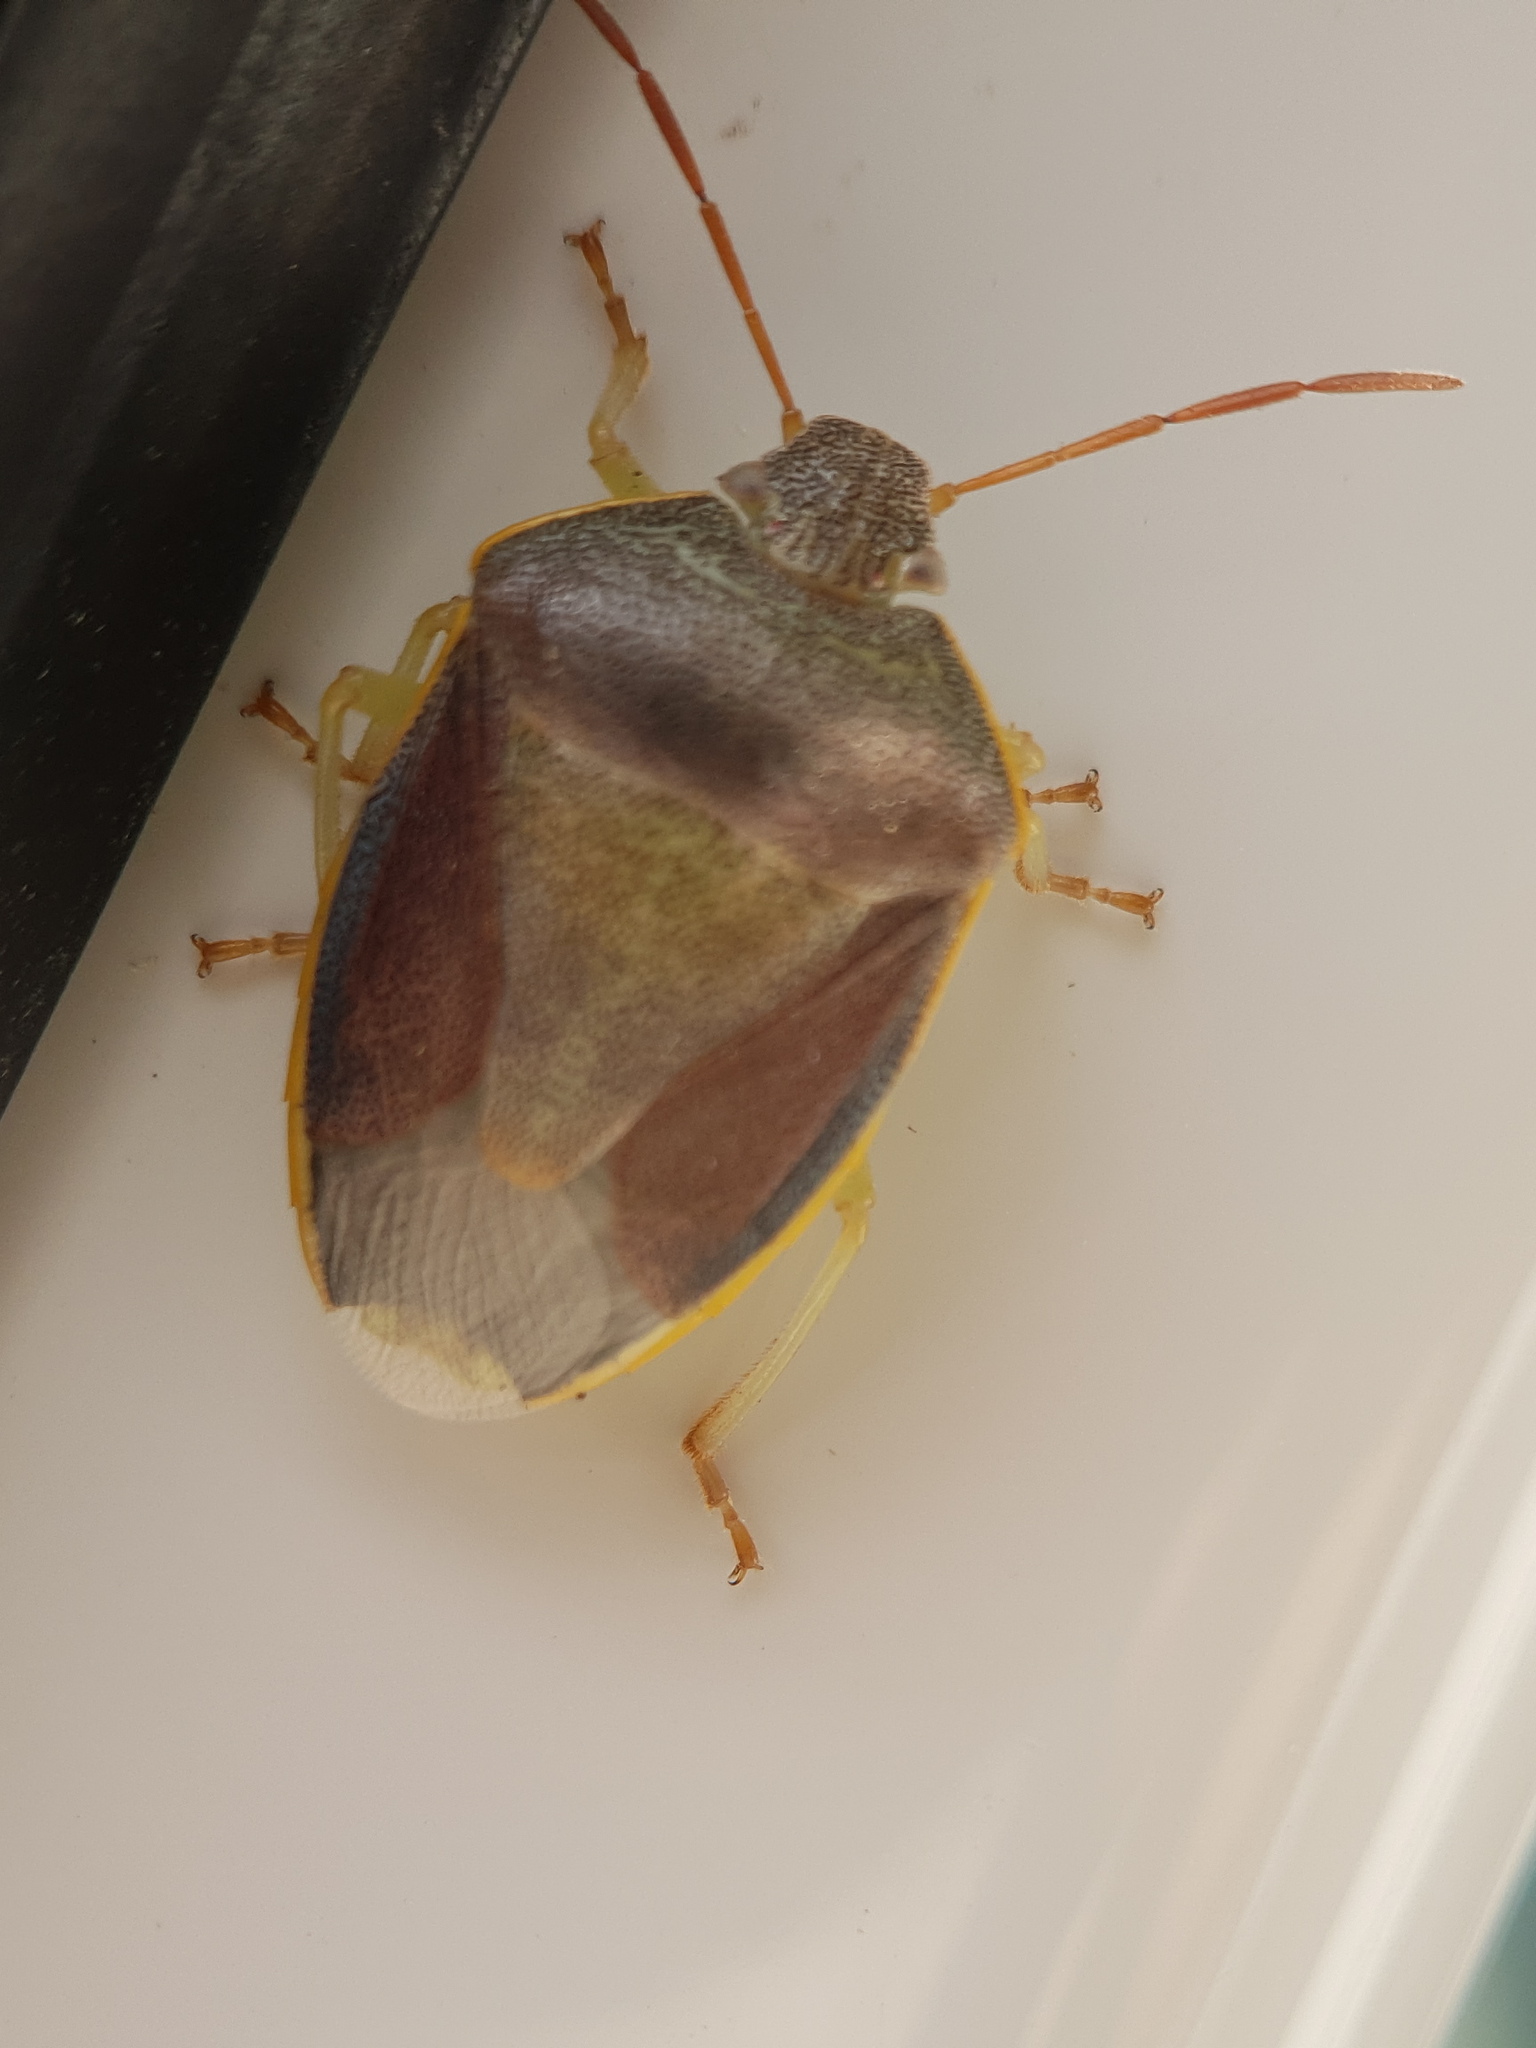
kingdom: Animalia
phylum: Arthropoda
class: Insecta
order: Hemiptera
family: Pentatomidae
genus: Piezodorus
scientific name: Piezodorus lituratus
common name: Stink bug
